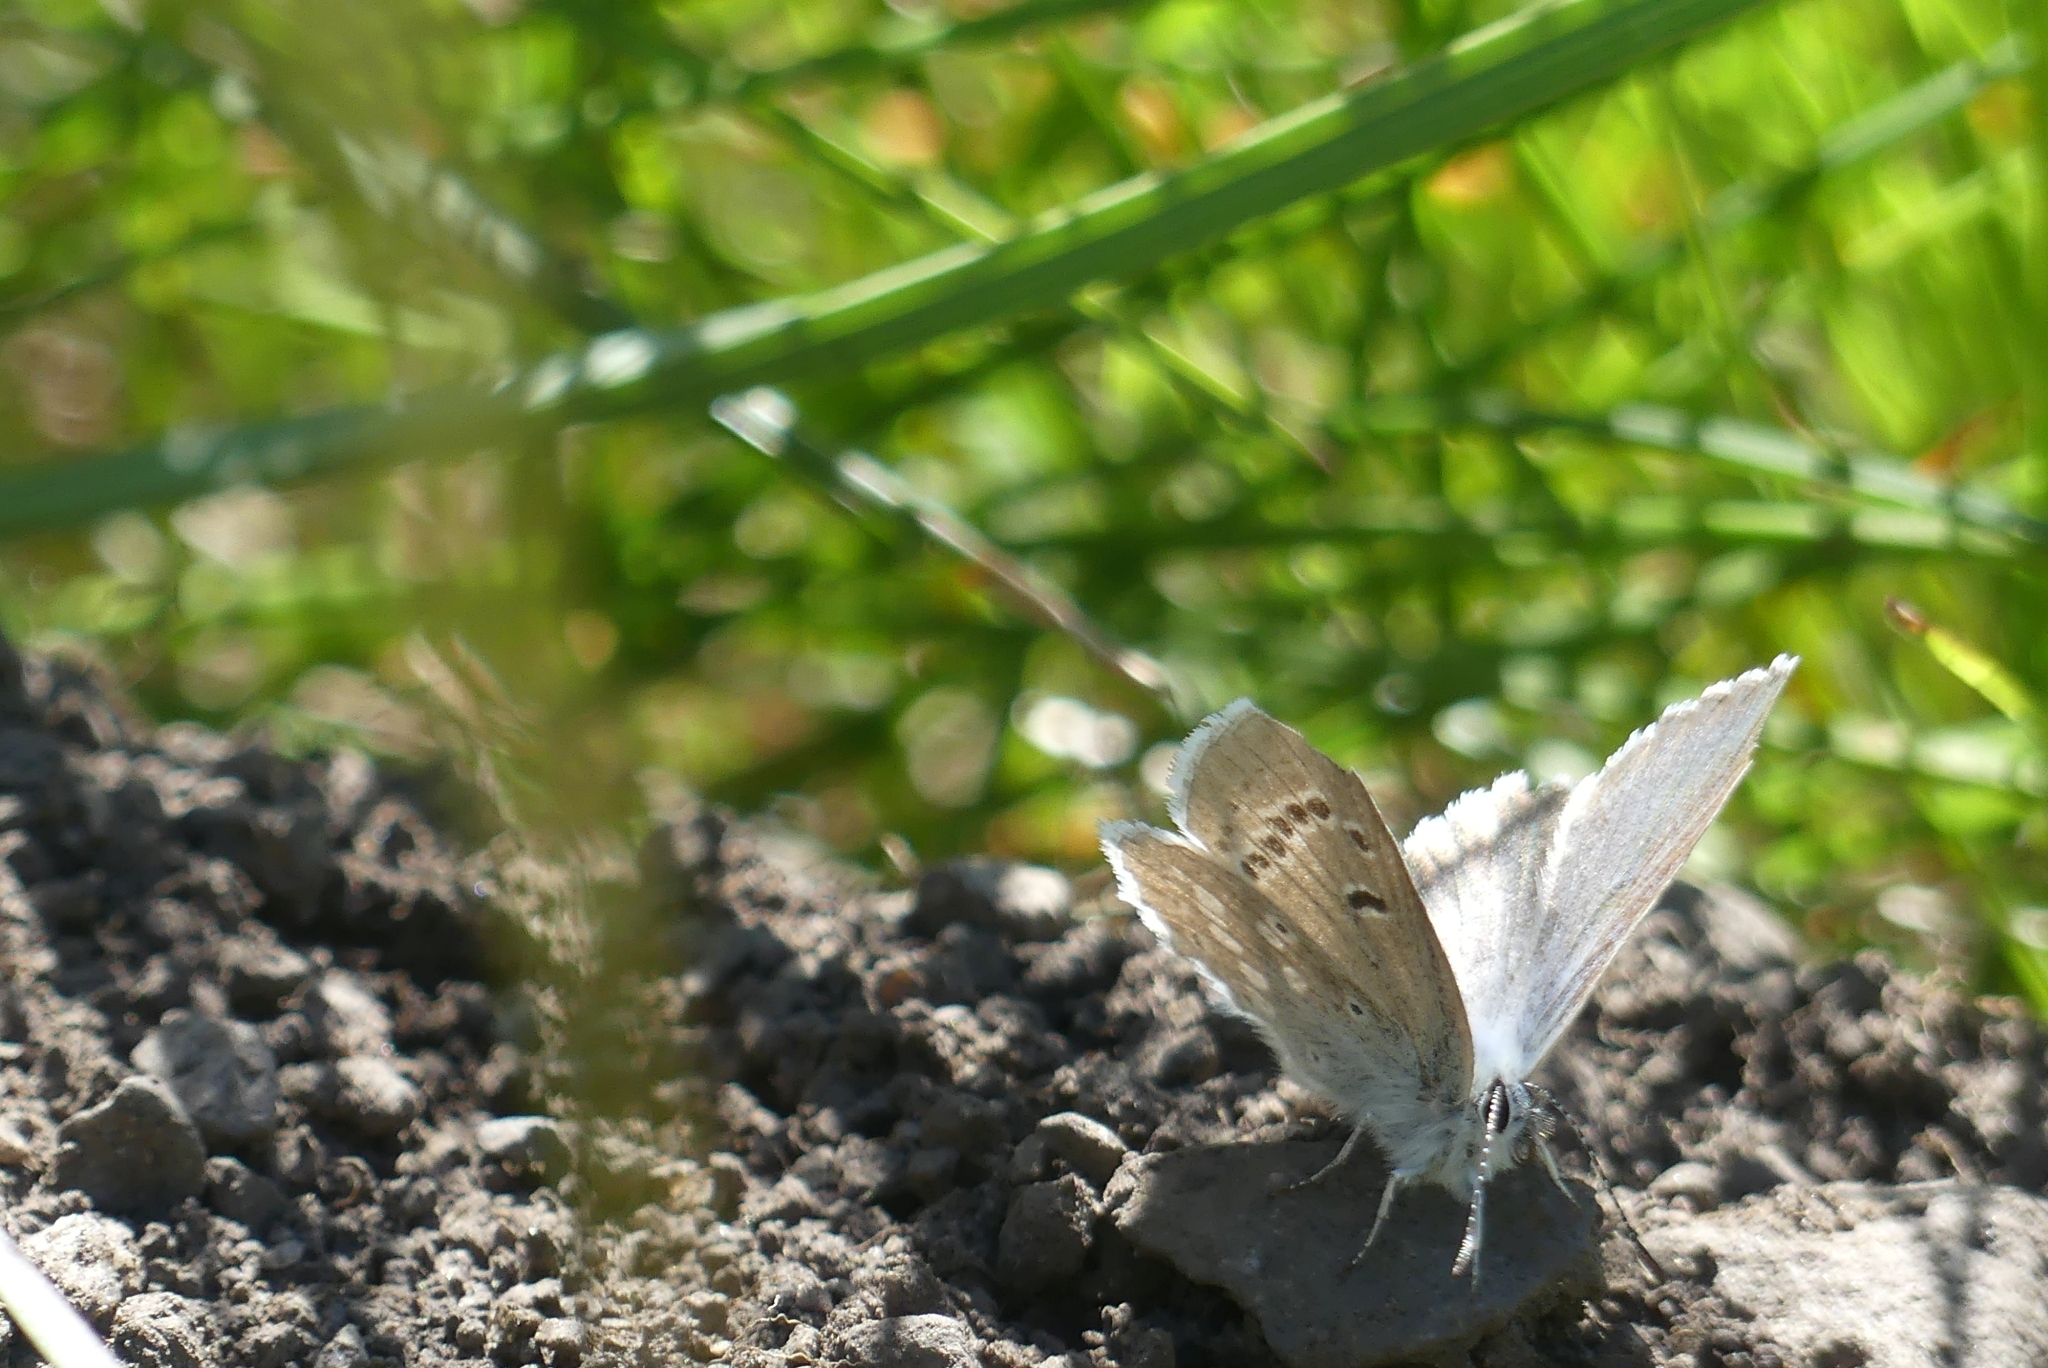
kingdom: Animalia
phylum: Arthropoda
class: Insecta
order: Lepidoptera
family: Lycaenidae
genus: Icaricia
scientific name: Icaricia icarioides
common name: Boisduval's blue
